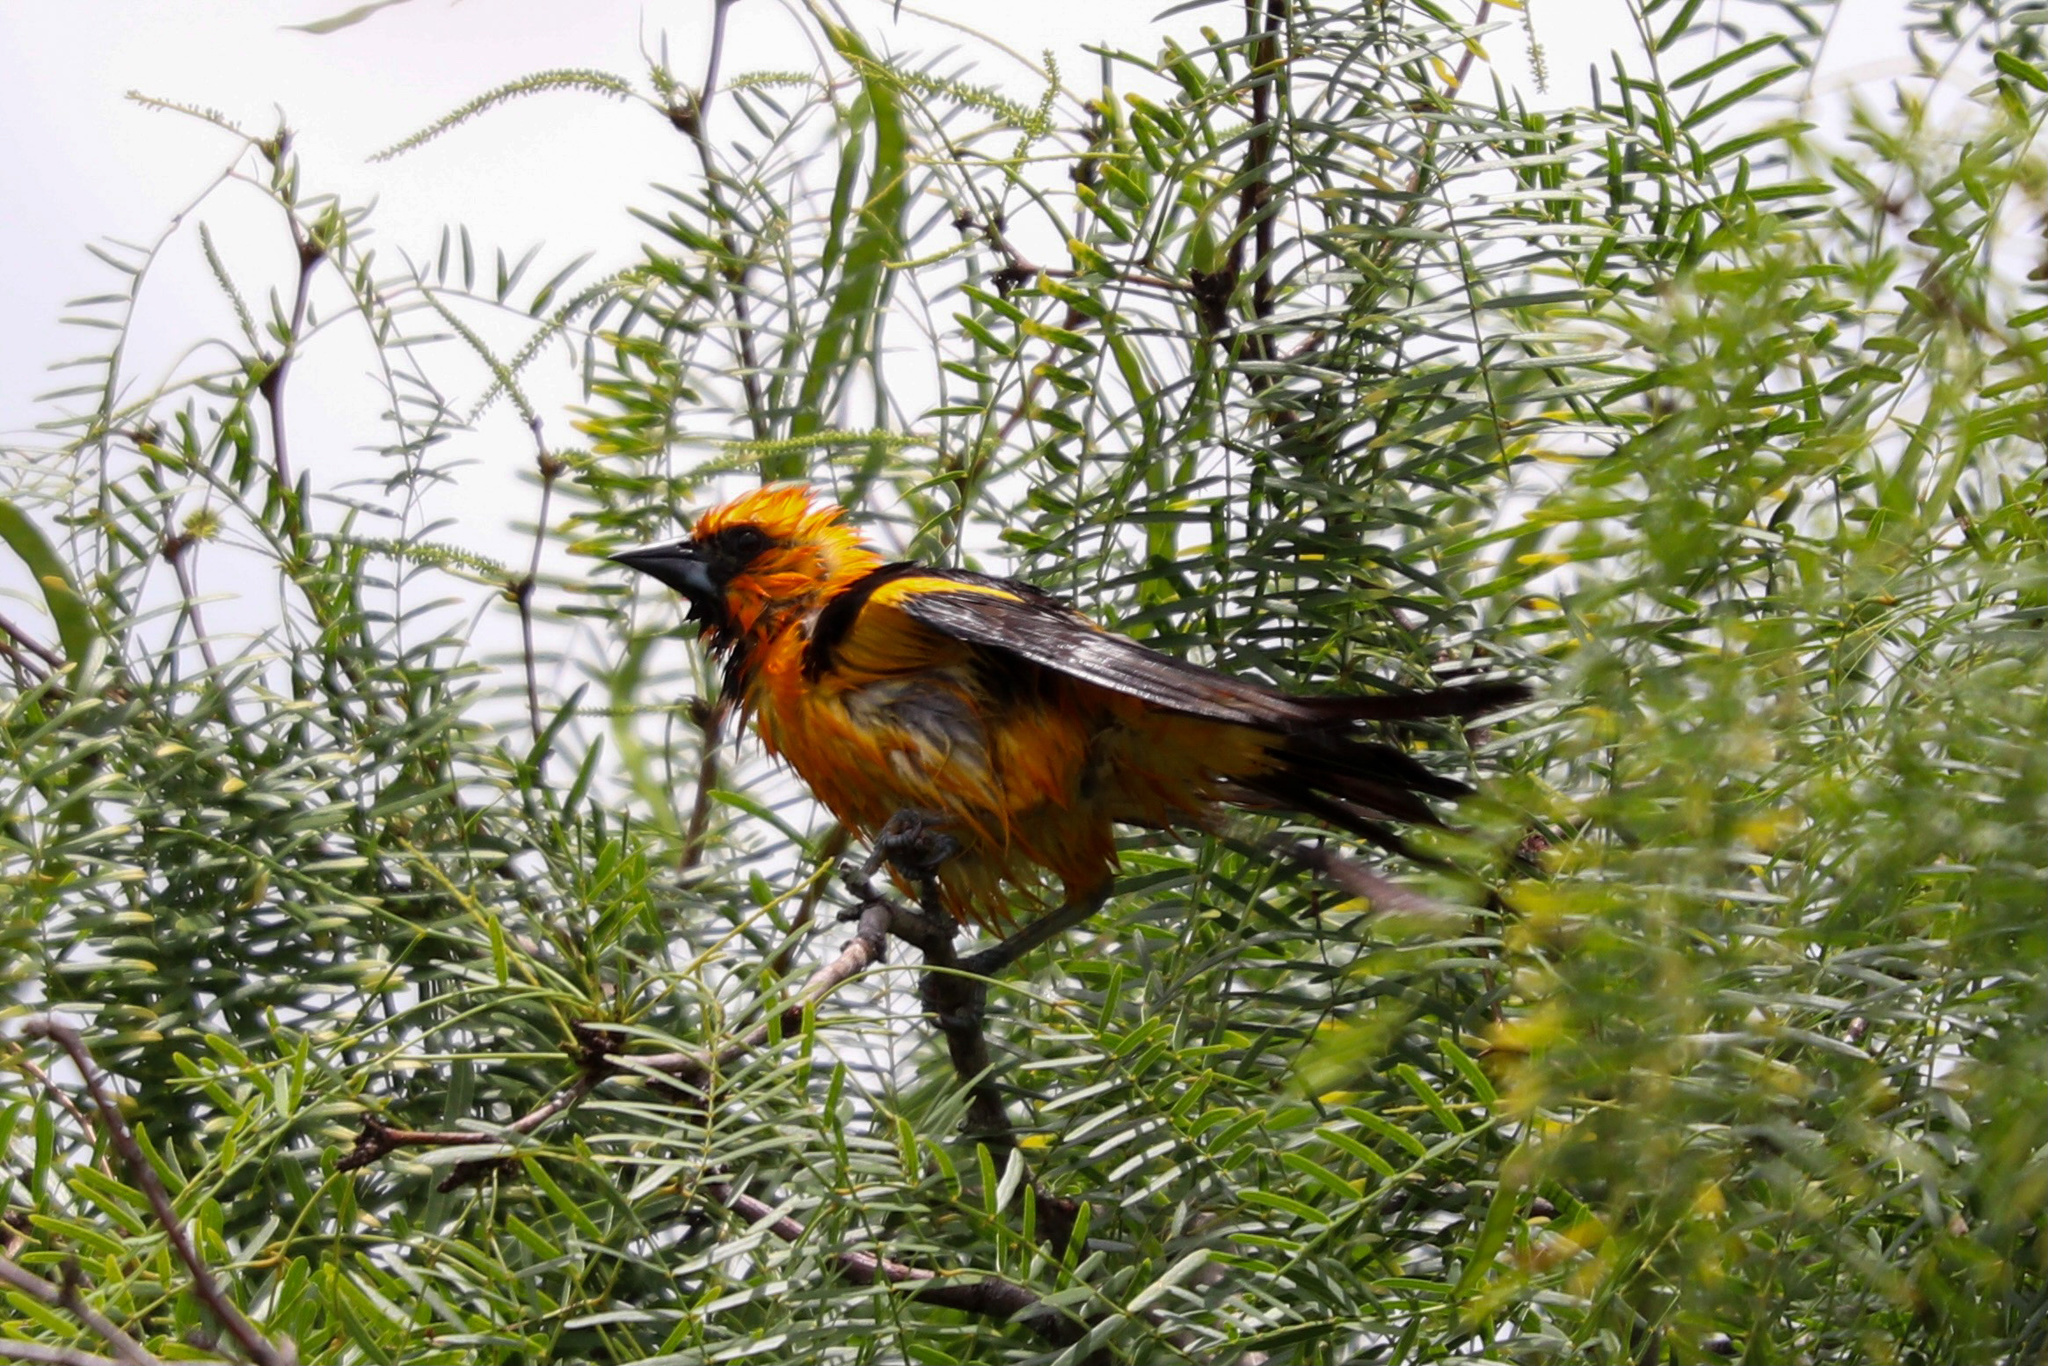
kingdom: Animalia
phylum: Chordata
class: Aves
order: Passeriformes
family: Icteridae
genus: Icterus
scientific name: Icterus gularis
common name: Altamira oriole
